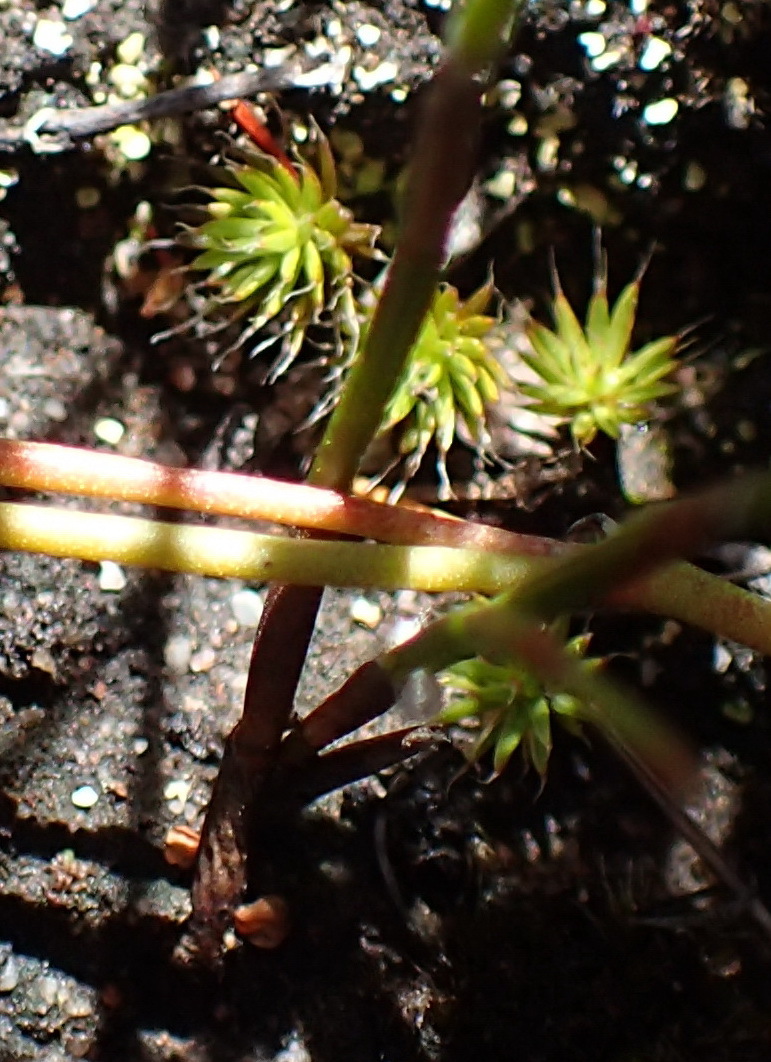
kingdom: Plantae
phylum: Bryophyta
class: Polytrichopsida
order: Polytrichales
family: Polytrichaceae
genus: Polytrichum
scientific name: Polytrichum piliferum
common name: Bristly haircap
